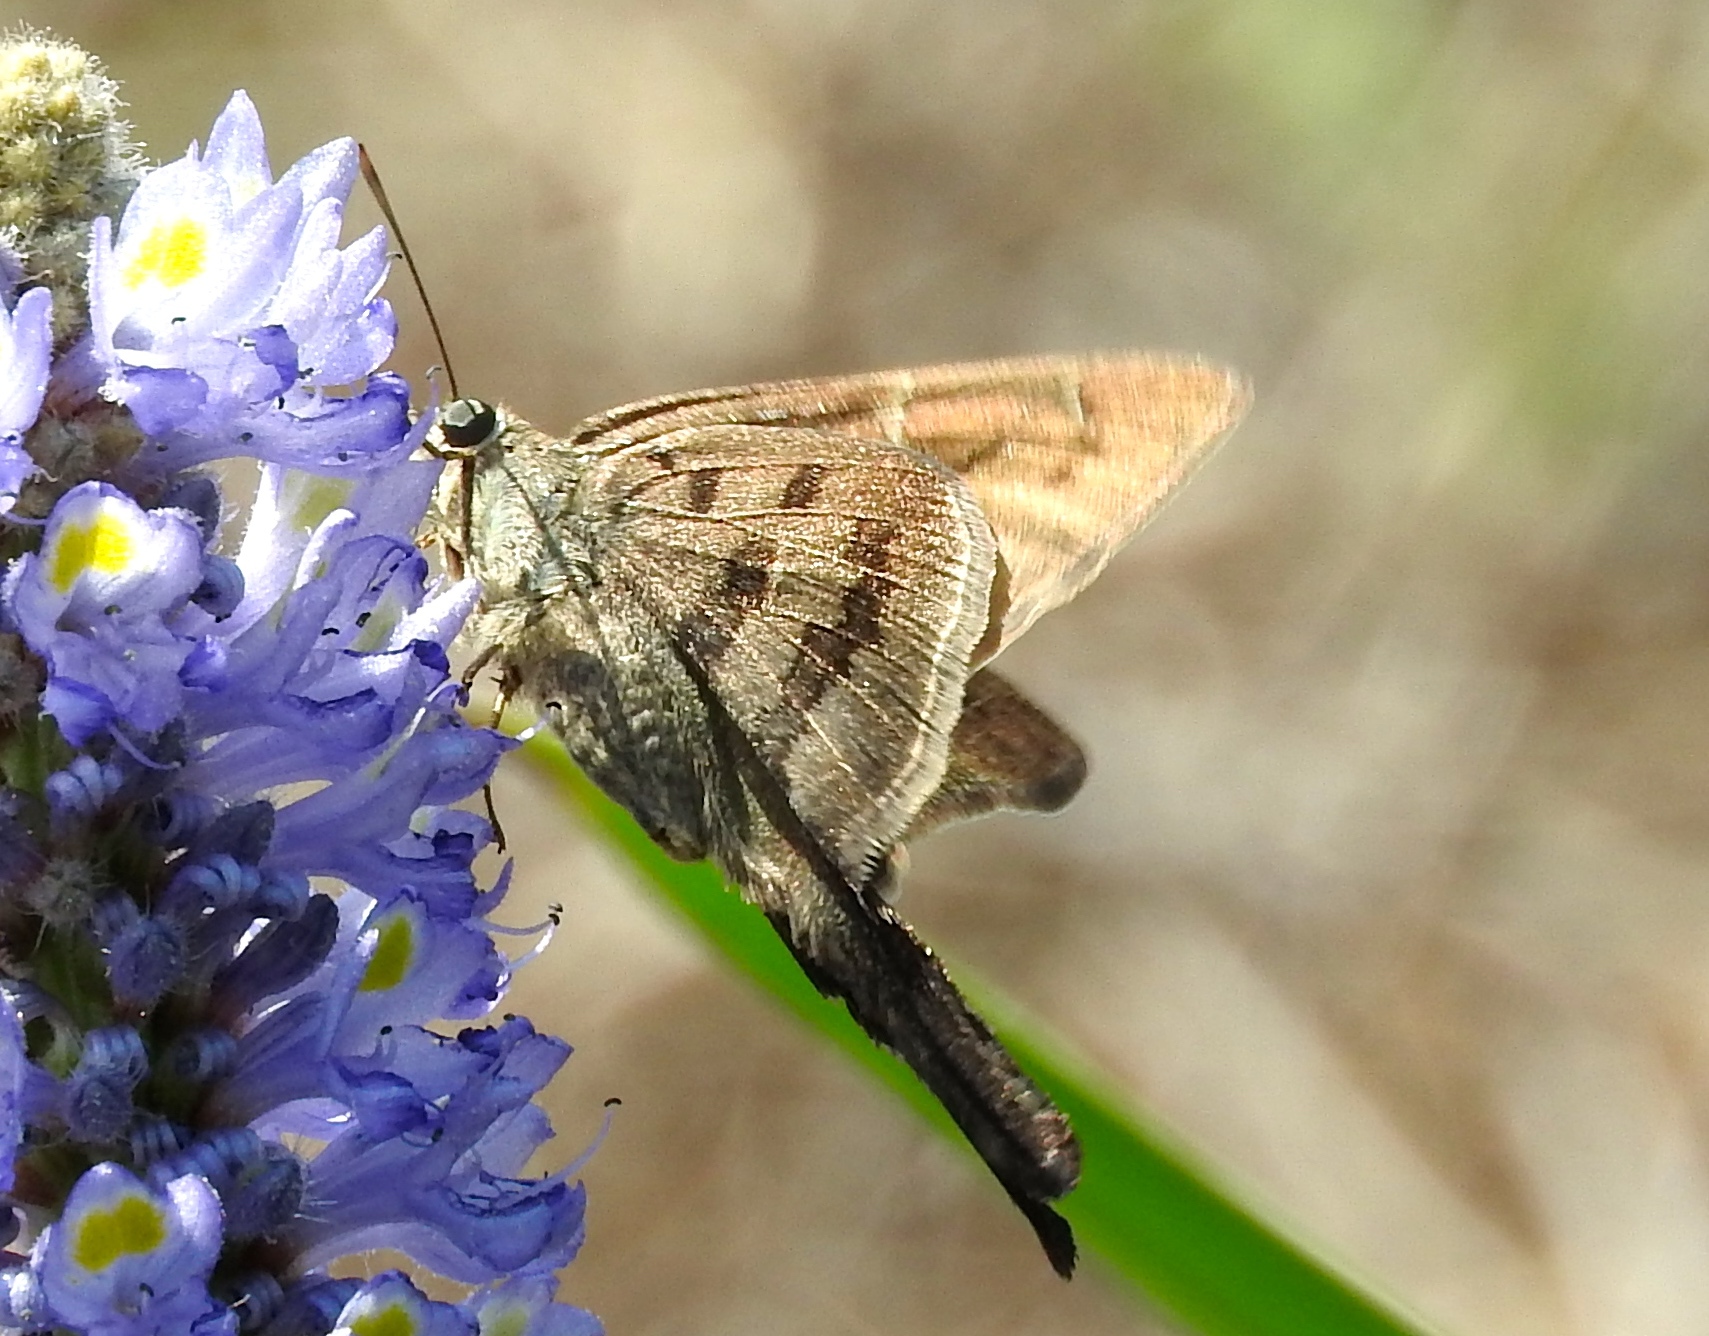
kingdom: Animalia
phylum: Arthropoda
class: Insecta
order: Lepidoptera
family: Hesperiidae
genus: Urbanus
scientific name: Urbanus procne
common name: Brown longtail
